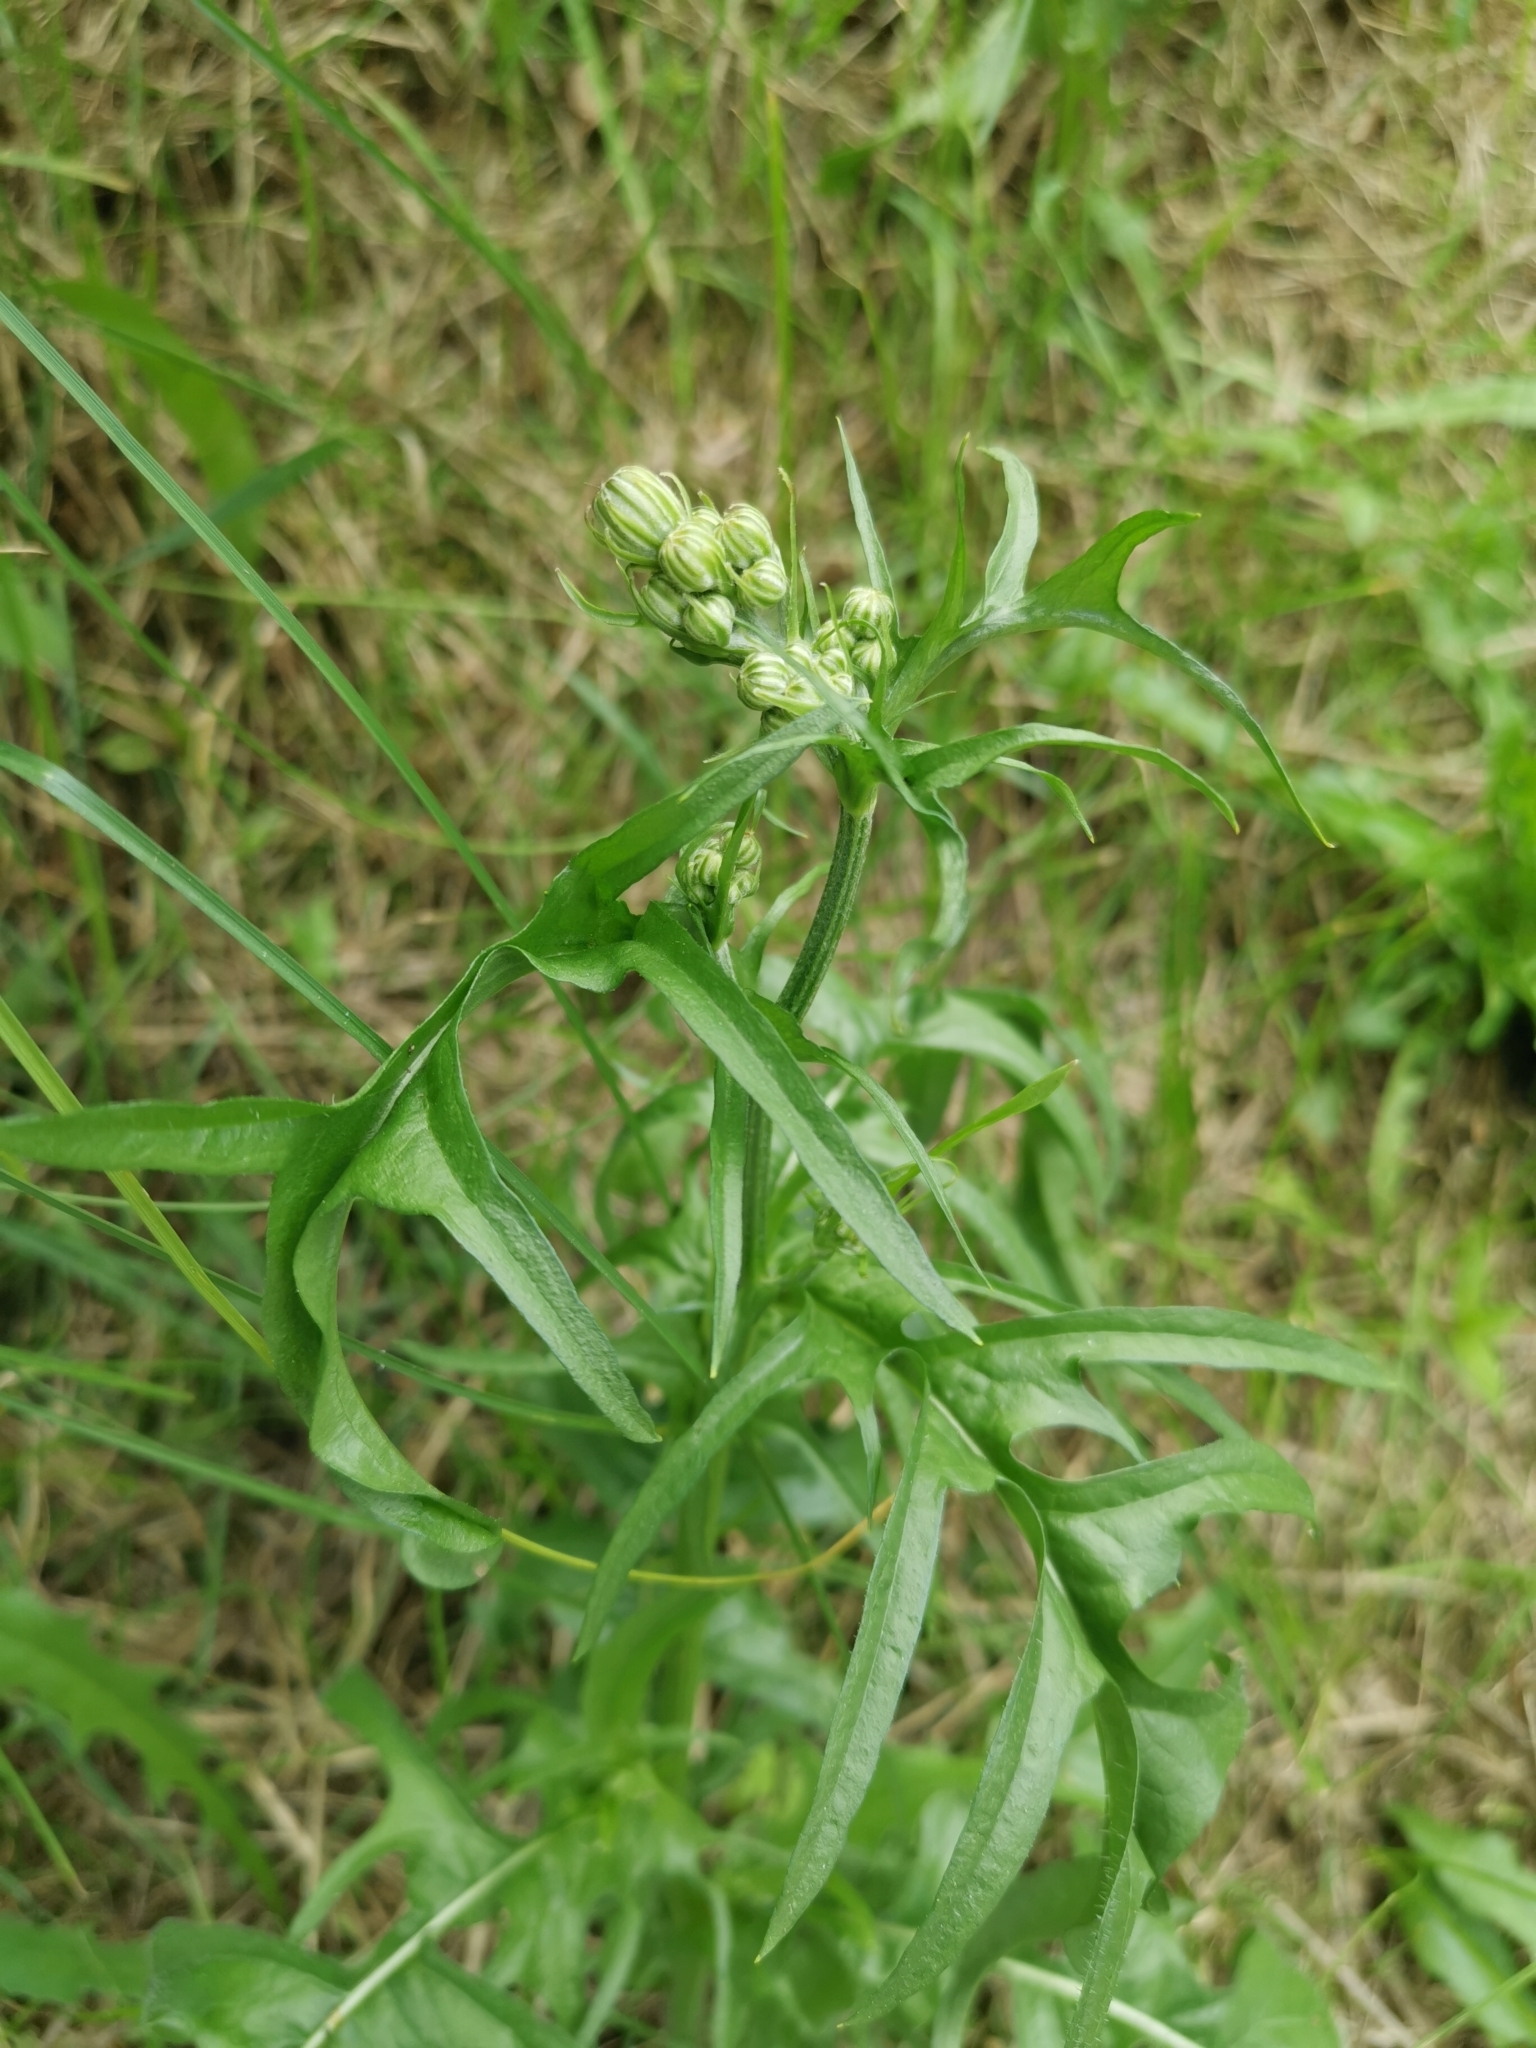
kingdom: Plantae
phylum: Tracheophyta
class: Magnoliopsida
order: Asterales
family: Asteraceae
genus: Crepis
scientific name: Crepis biennis
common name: Rough hawk's-beard
